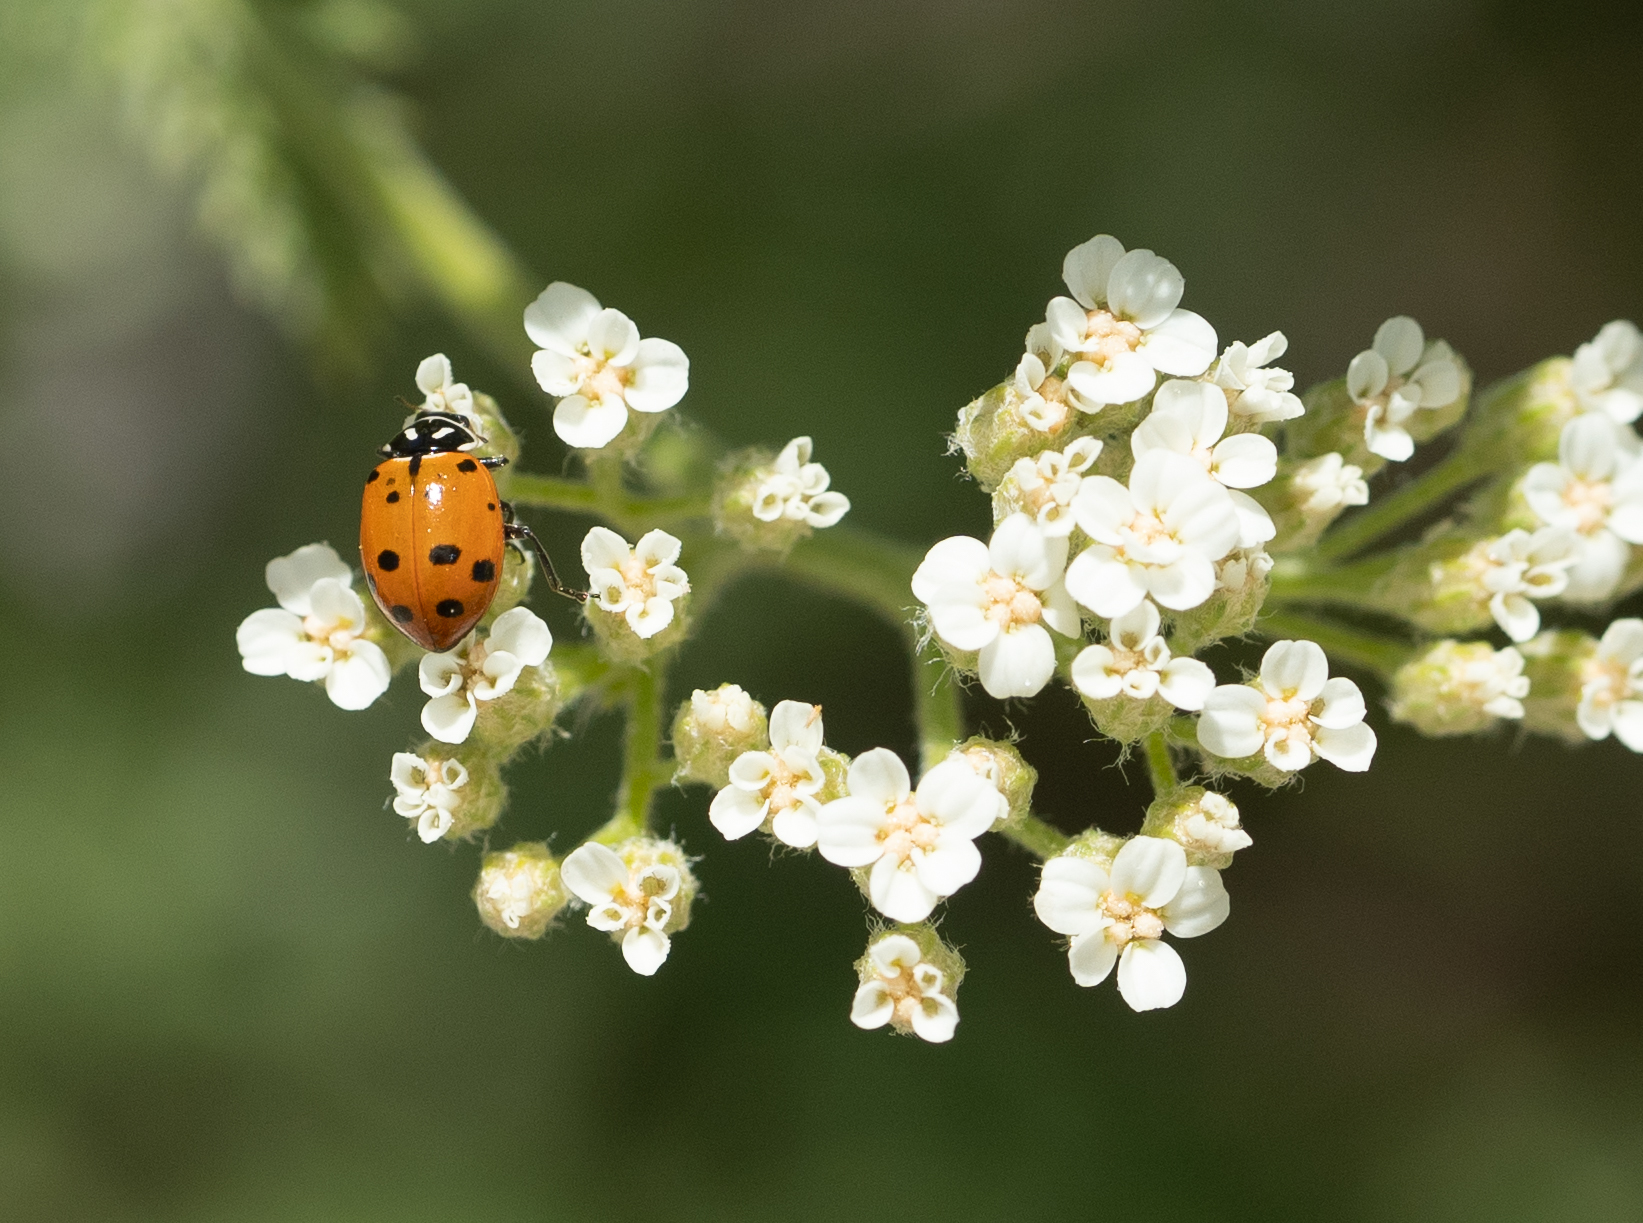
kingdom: Animalia
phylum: Arthropoda
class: Insecta
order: Coleoptera
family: Coccinellidae
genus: Hippodamia
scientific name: Hippodamia convergens
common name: Convergent lady beetle
